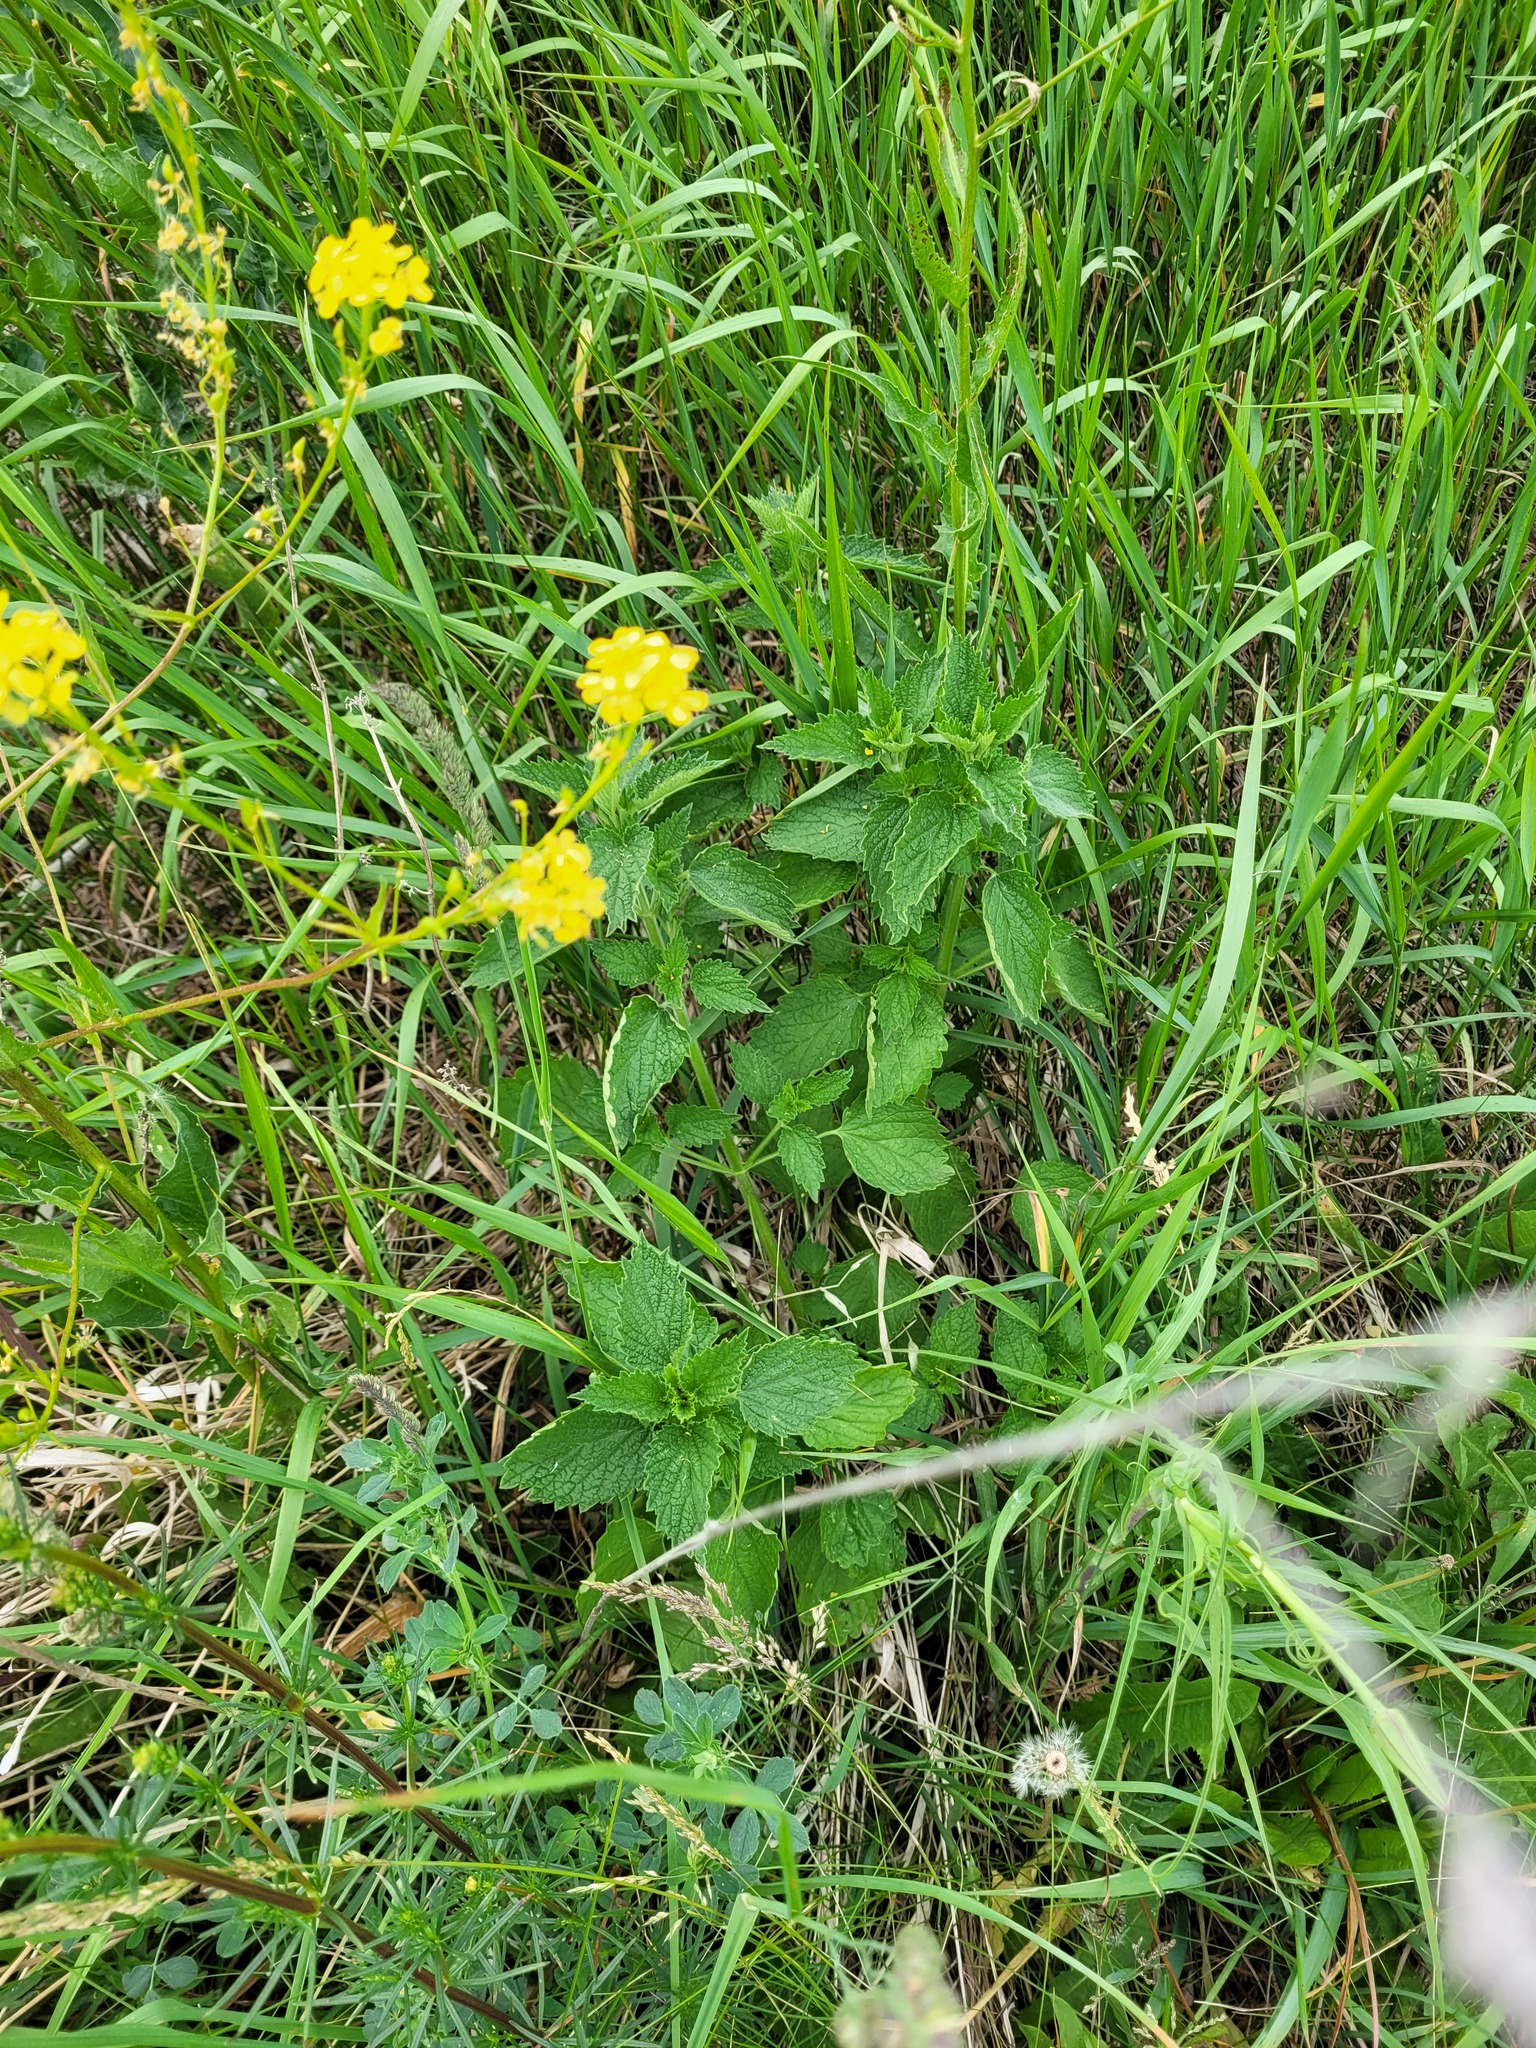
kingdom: Plantae
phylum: Tracheophyta
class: Magnoliopsida
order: Lamiales
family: Lamiaceae
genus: Ballota
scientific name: Ballota nigra
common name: Black horehound
